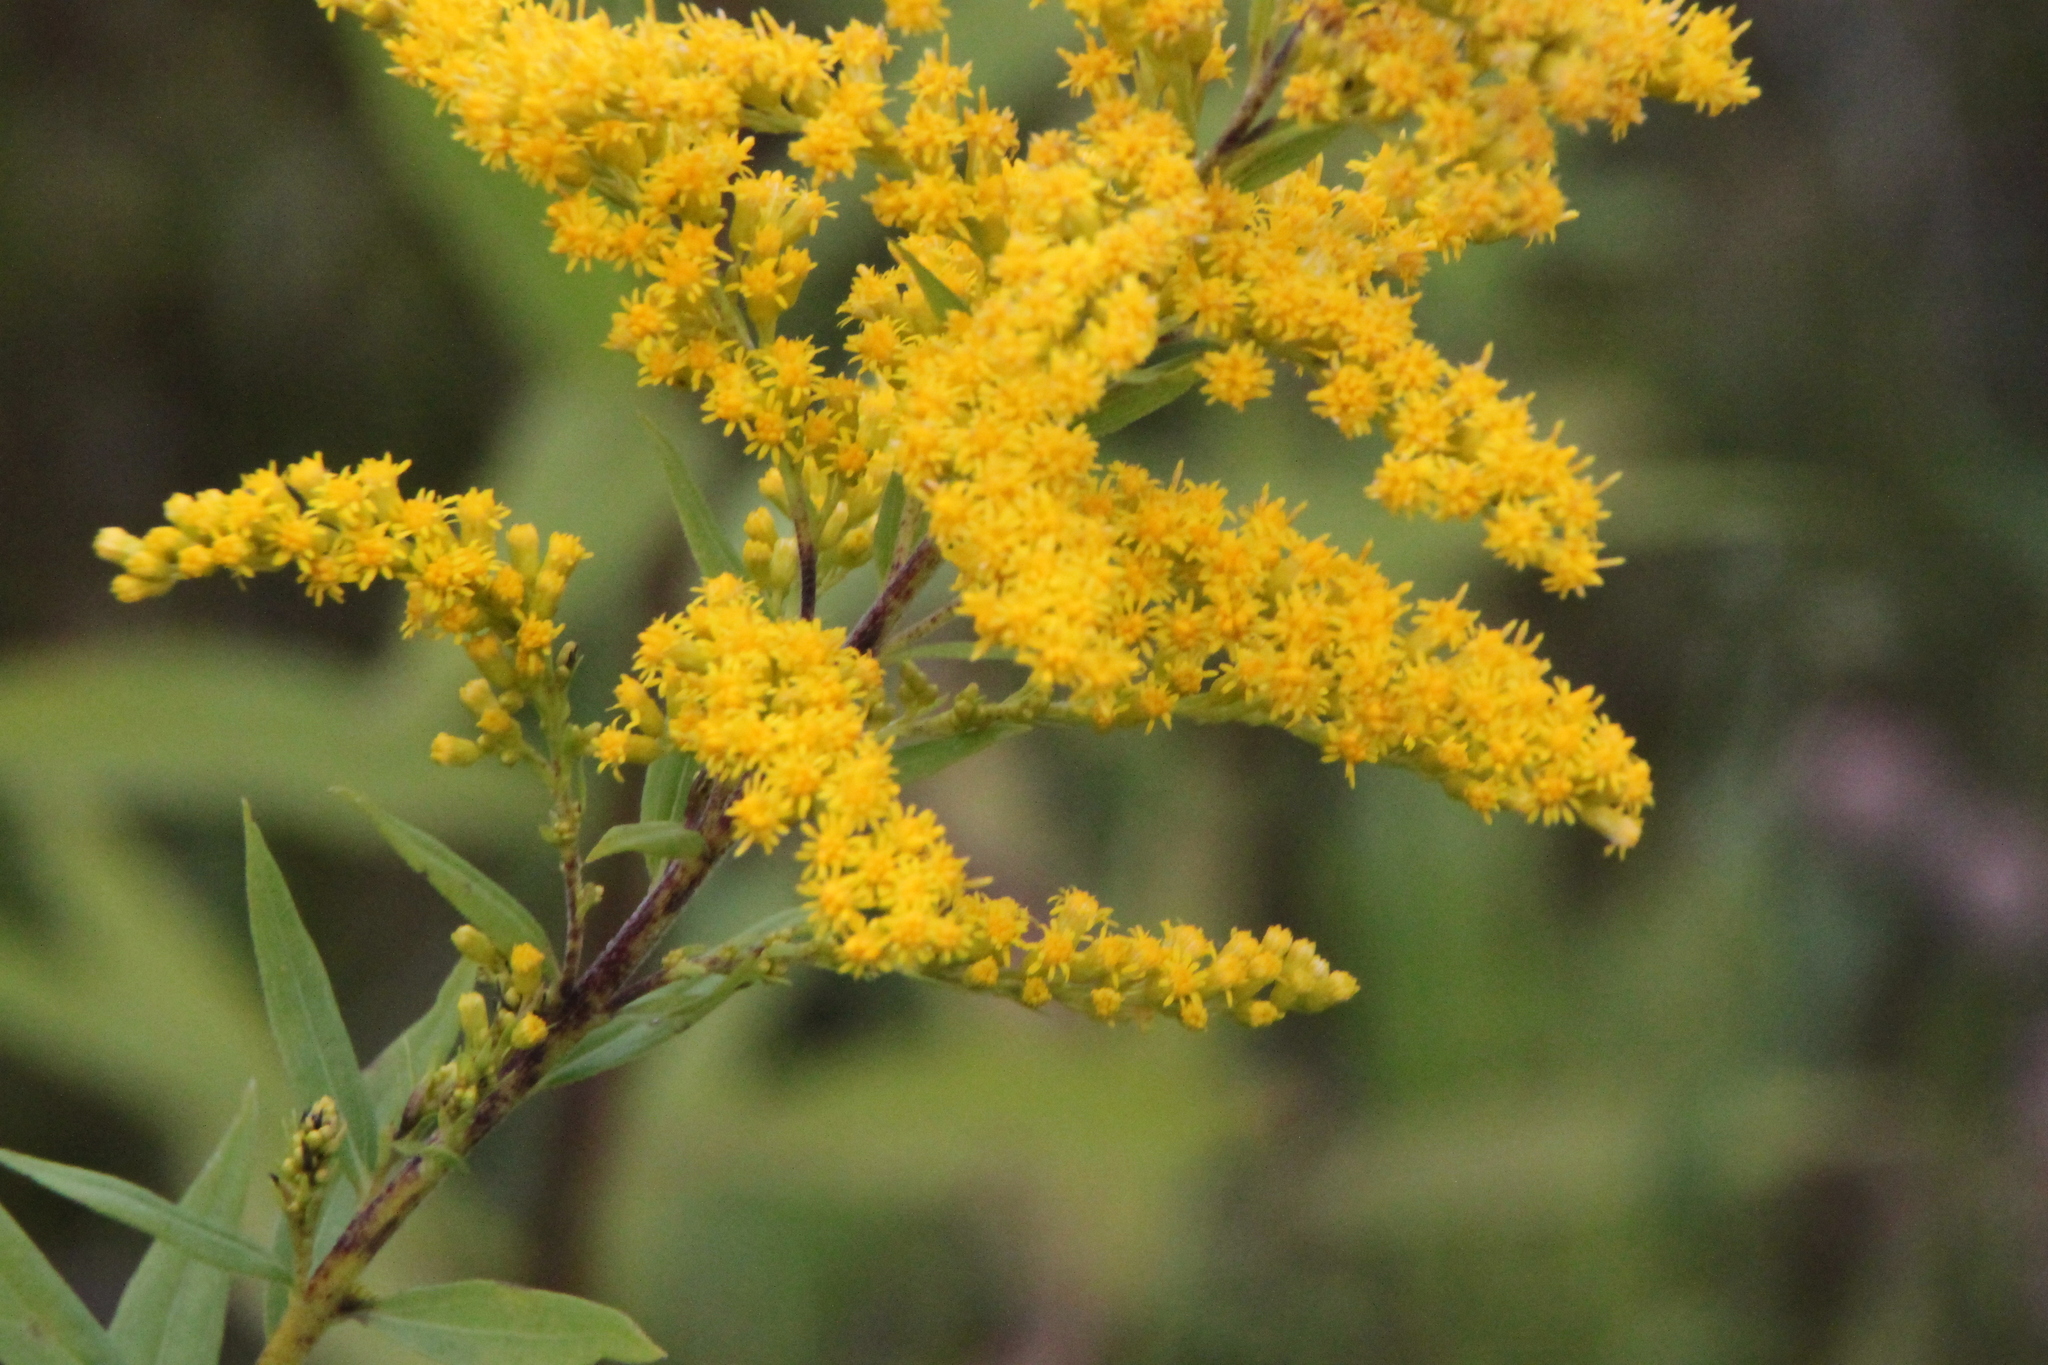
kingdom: Plantae
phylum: Tracheophyta
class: Magnoliopsida
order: Asterales
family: Asteraceae
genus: Solidago
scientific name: Solidago gigantea
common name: Giant goldenrod
